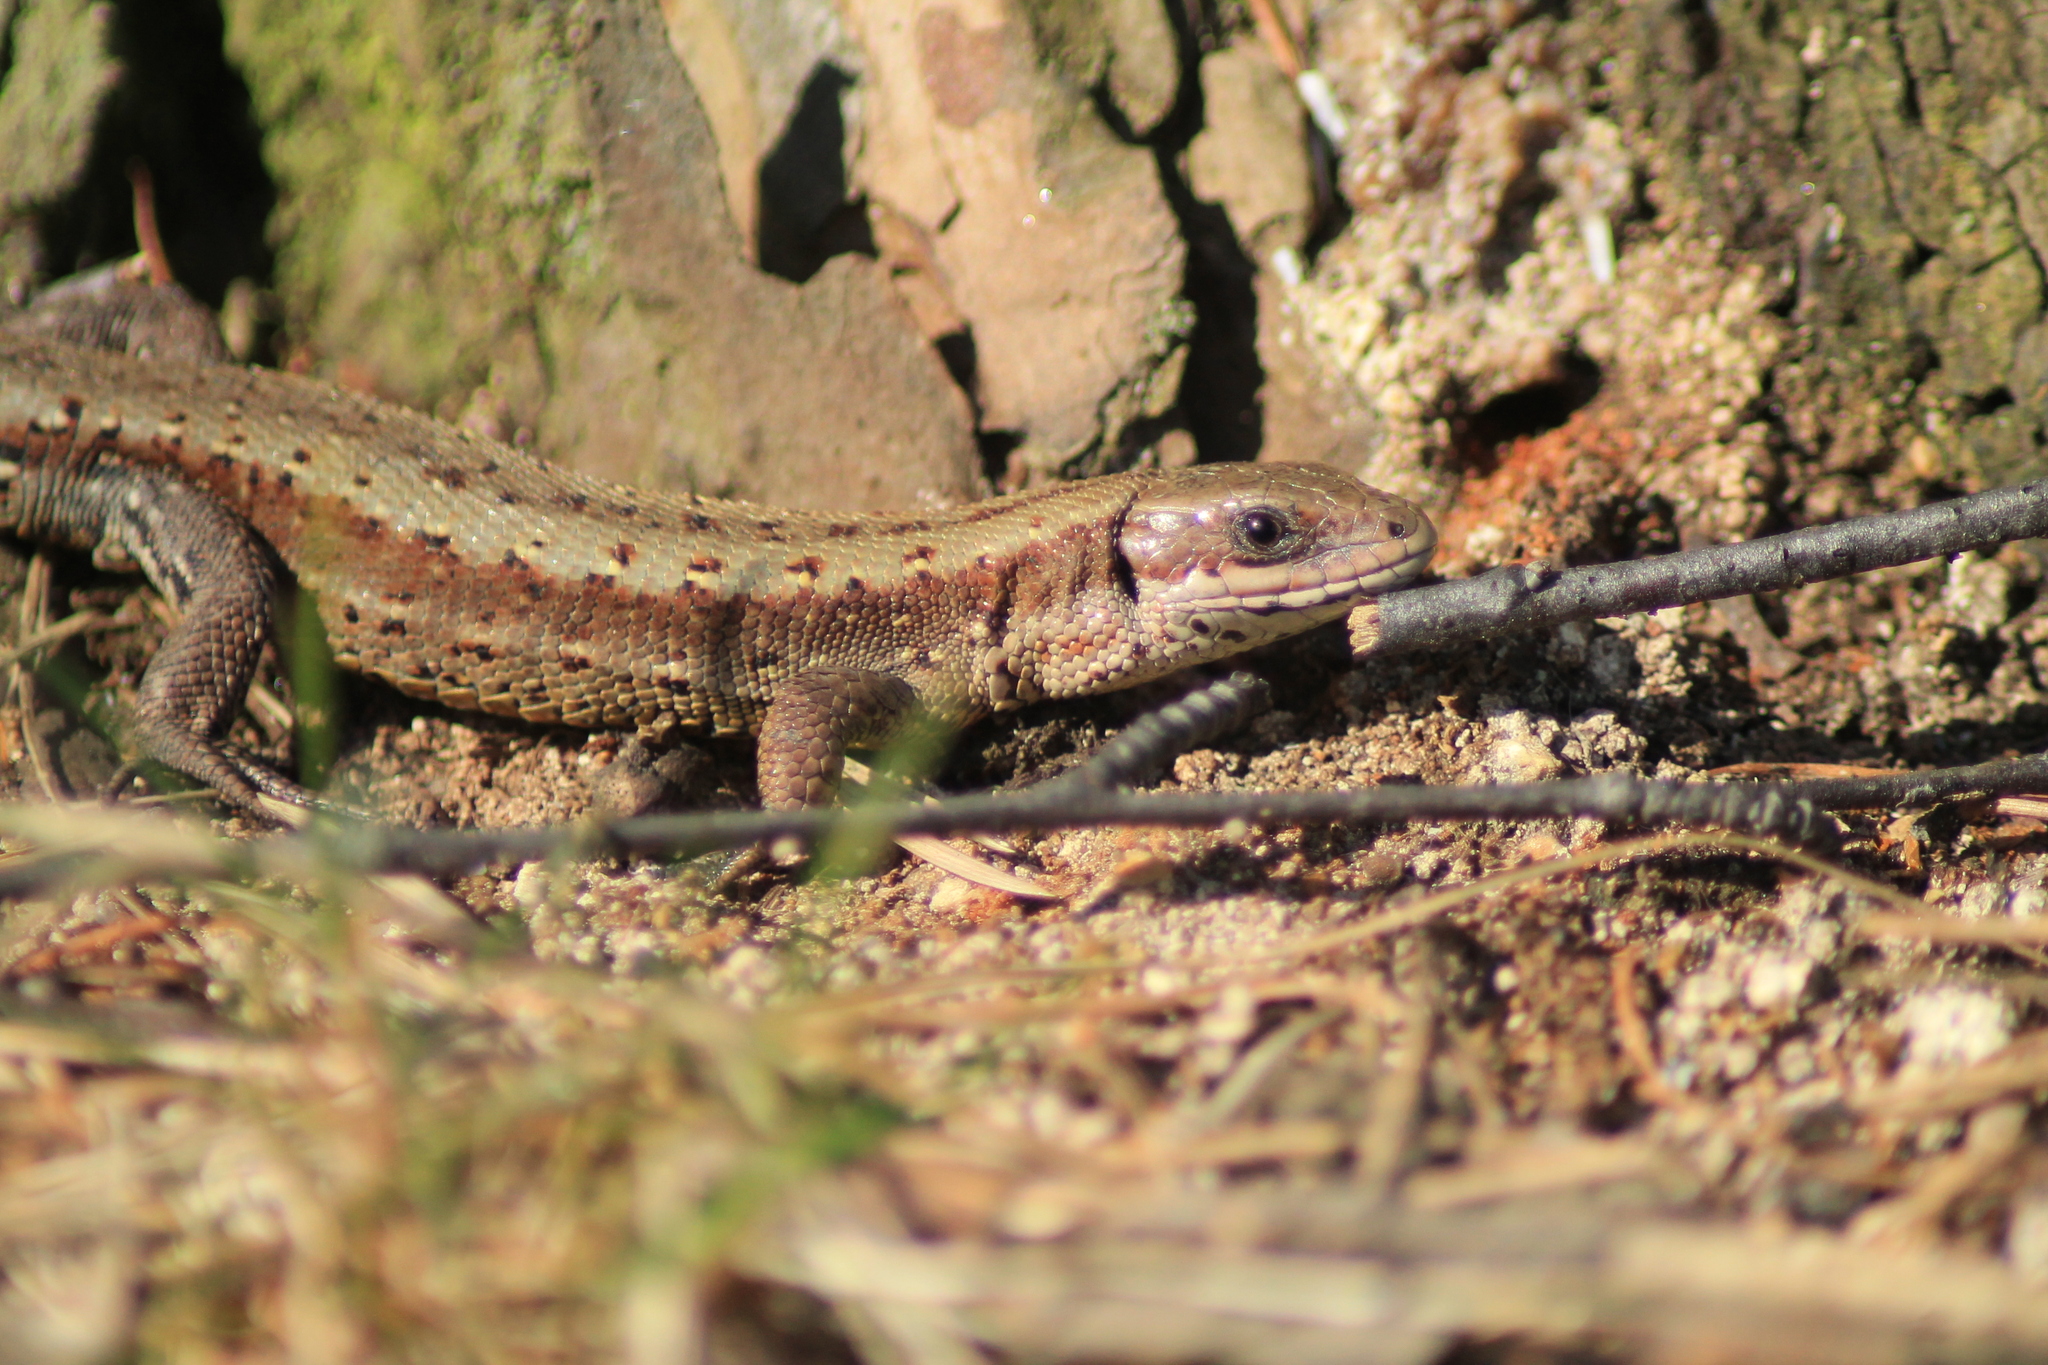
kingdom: Animalia
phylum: Chordata
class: Squamata
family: Lacertidae
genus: Zootoca
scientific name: Zootoca vivipara
